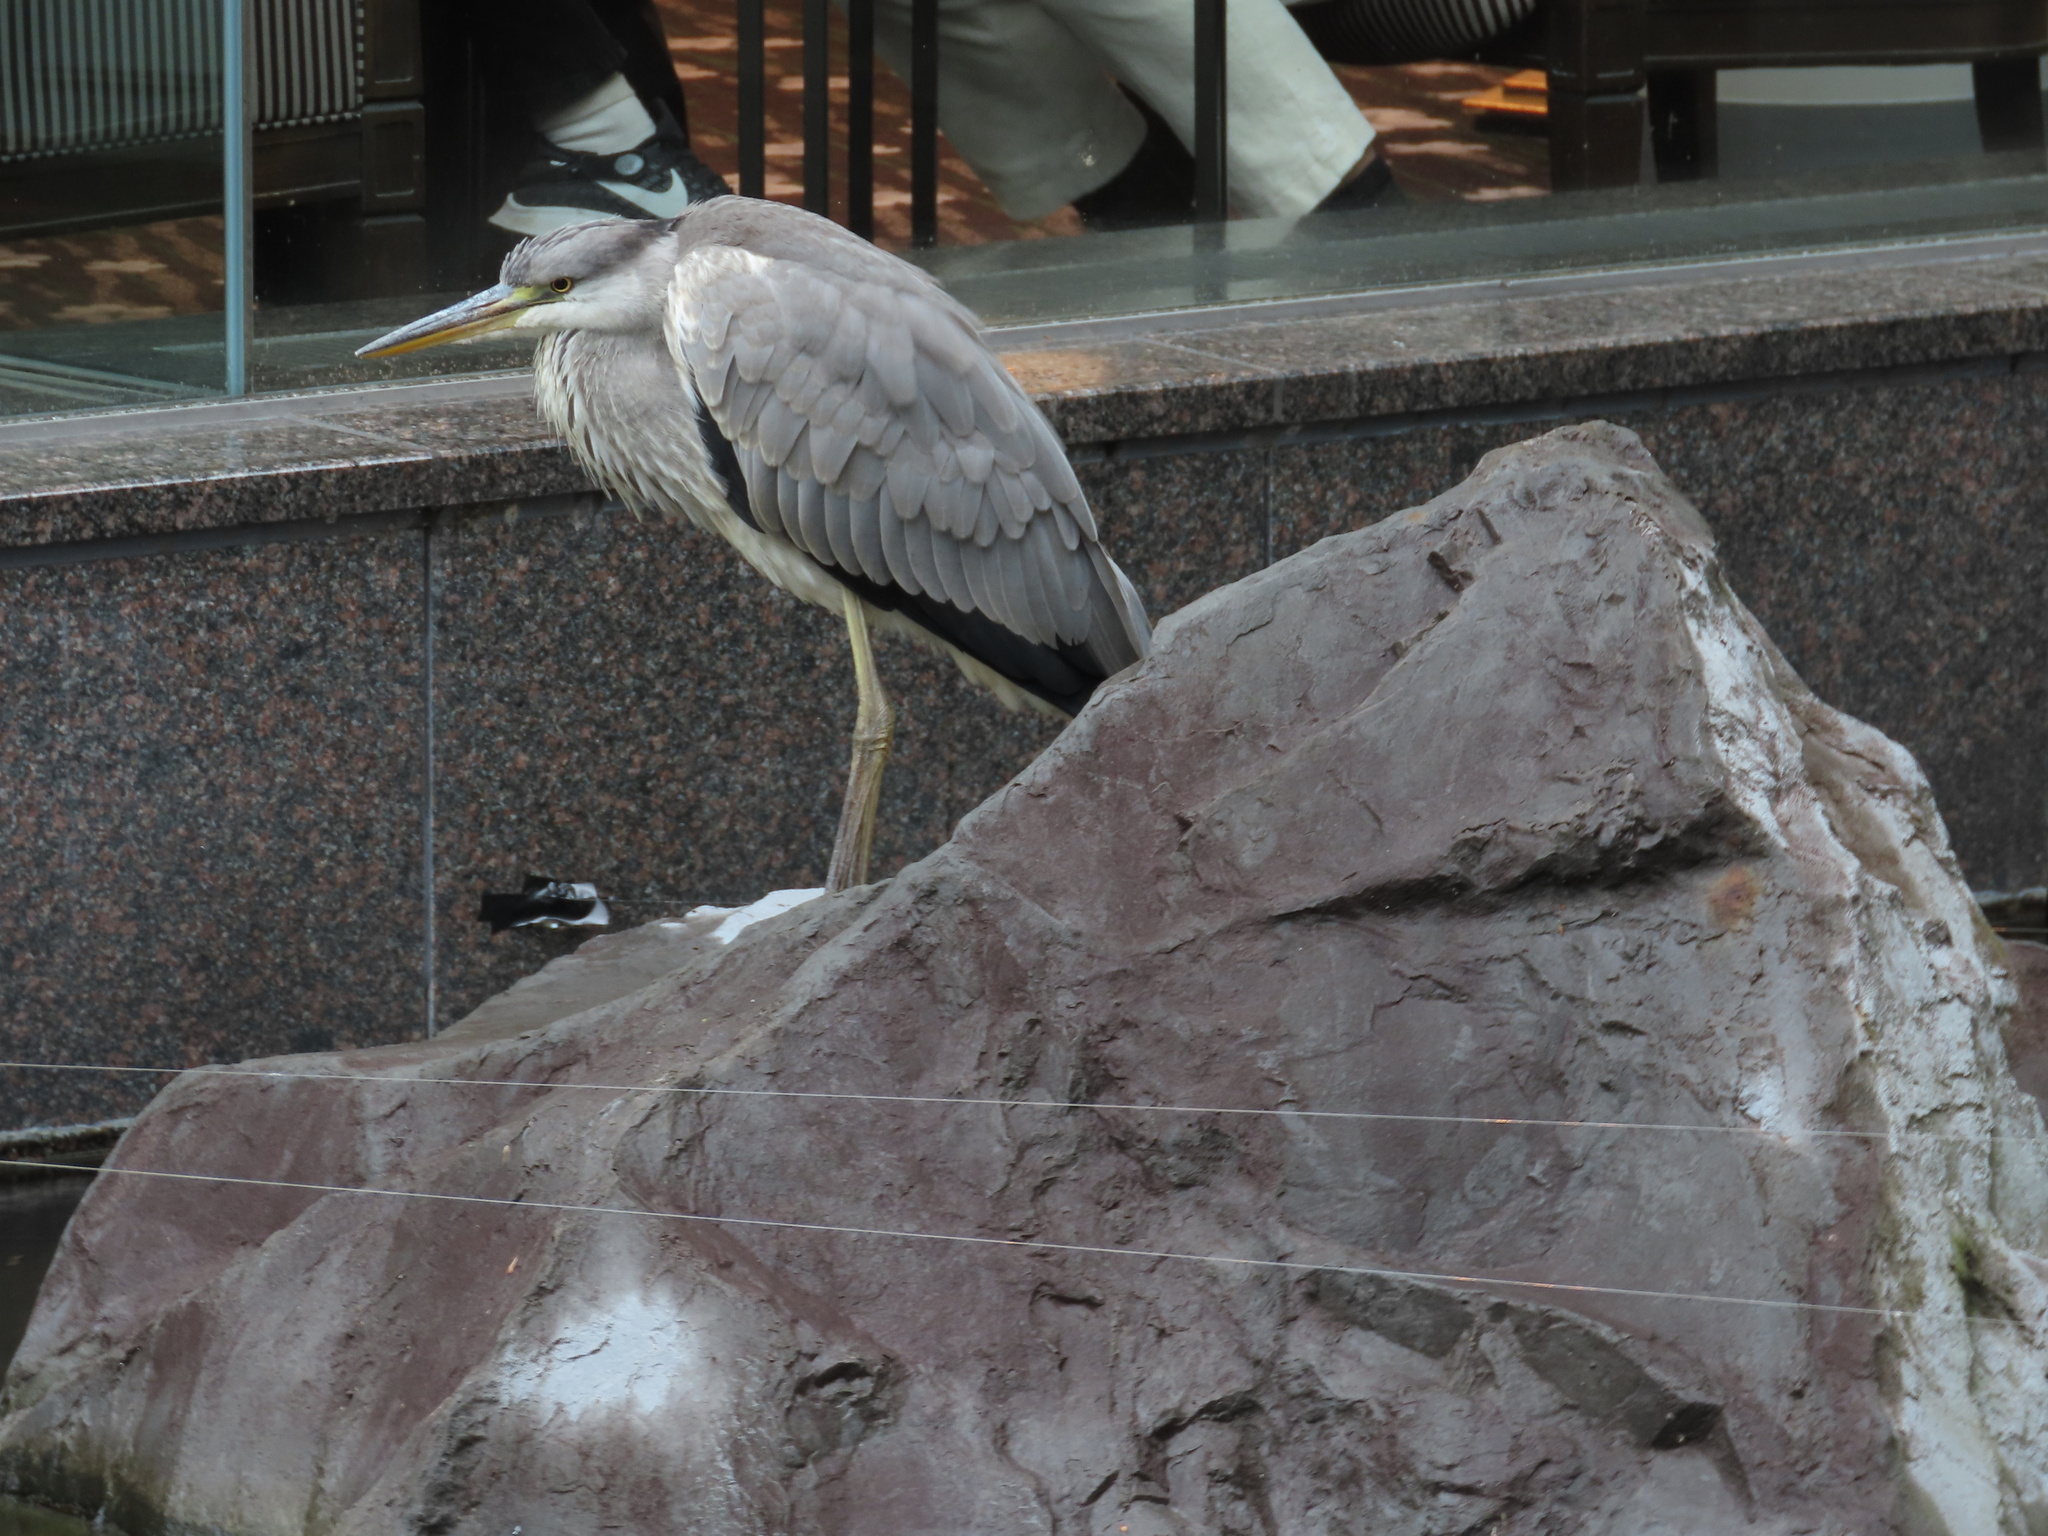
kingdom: Animalia
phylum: Chordata
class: Aves
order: Pelecaniformes
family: Ardeidae
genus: Ardea
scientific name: Ardea cinerea
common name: Grey heron
